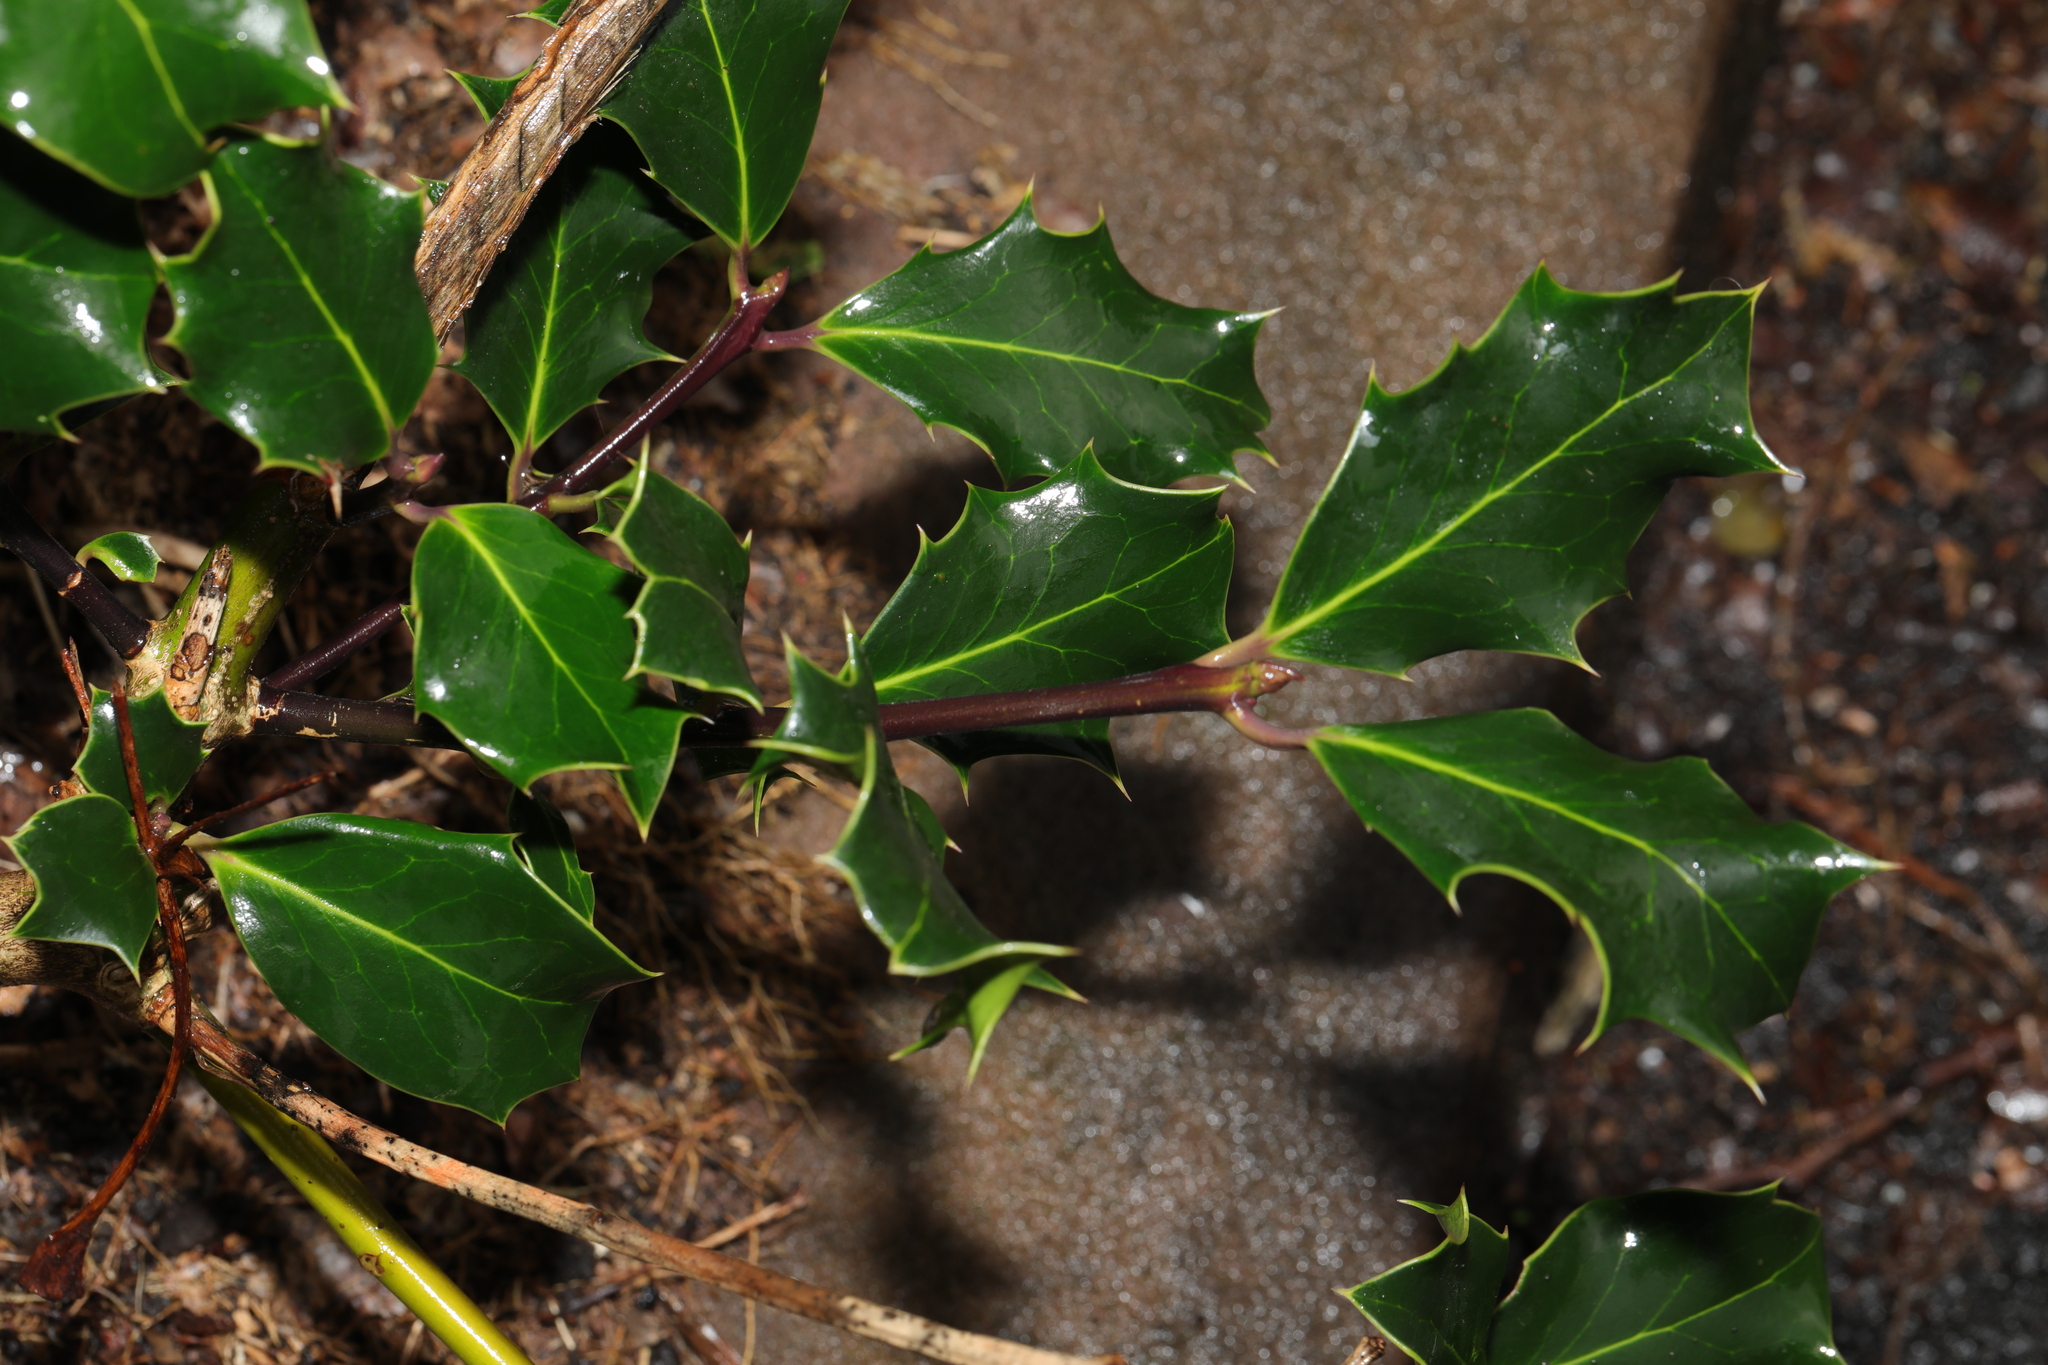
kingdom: Plantae
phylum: Tracheophyta
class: Magnoliopsida
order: Aquifoliales
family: Aquifoliaceae
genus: Ilex
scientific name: Ilex aquifolium
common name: English holly
